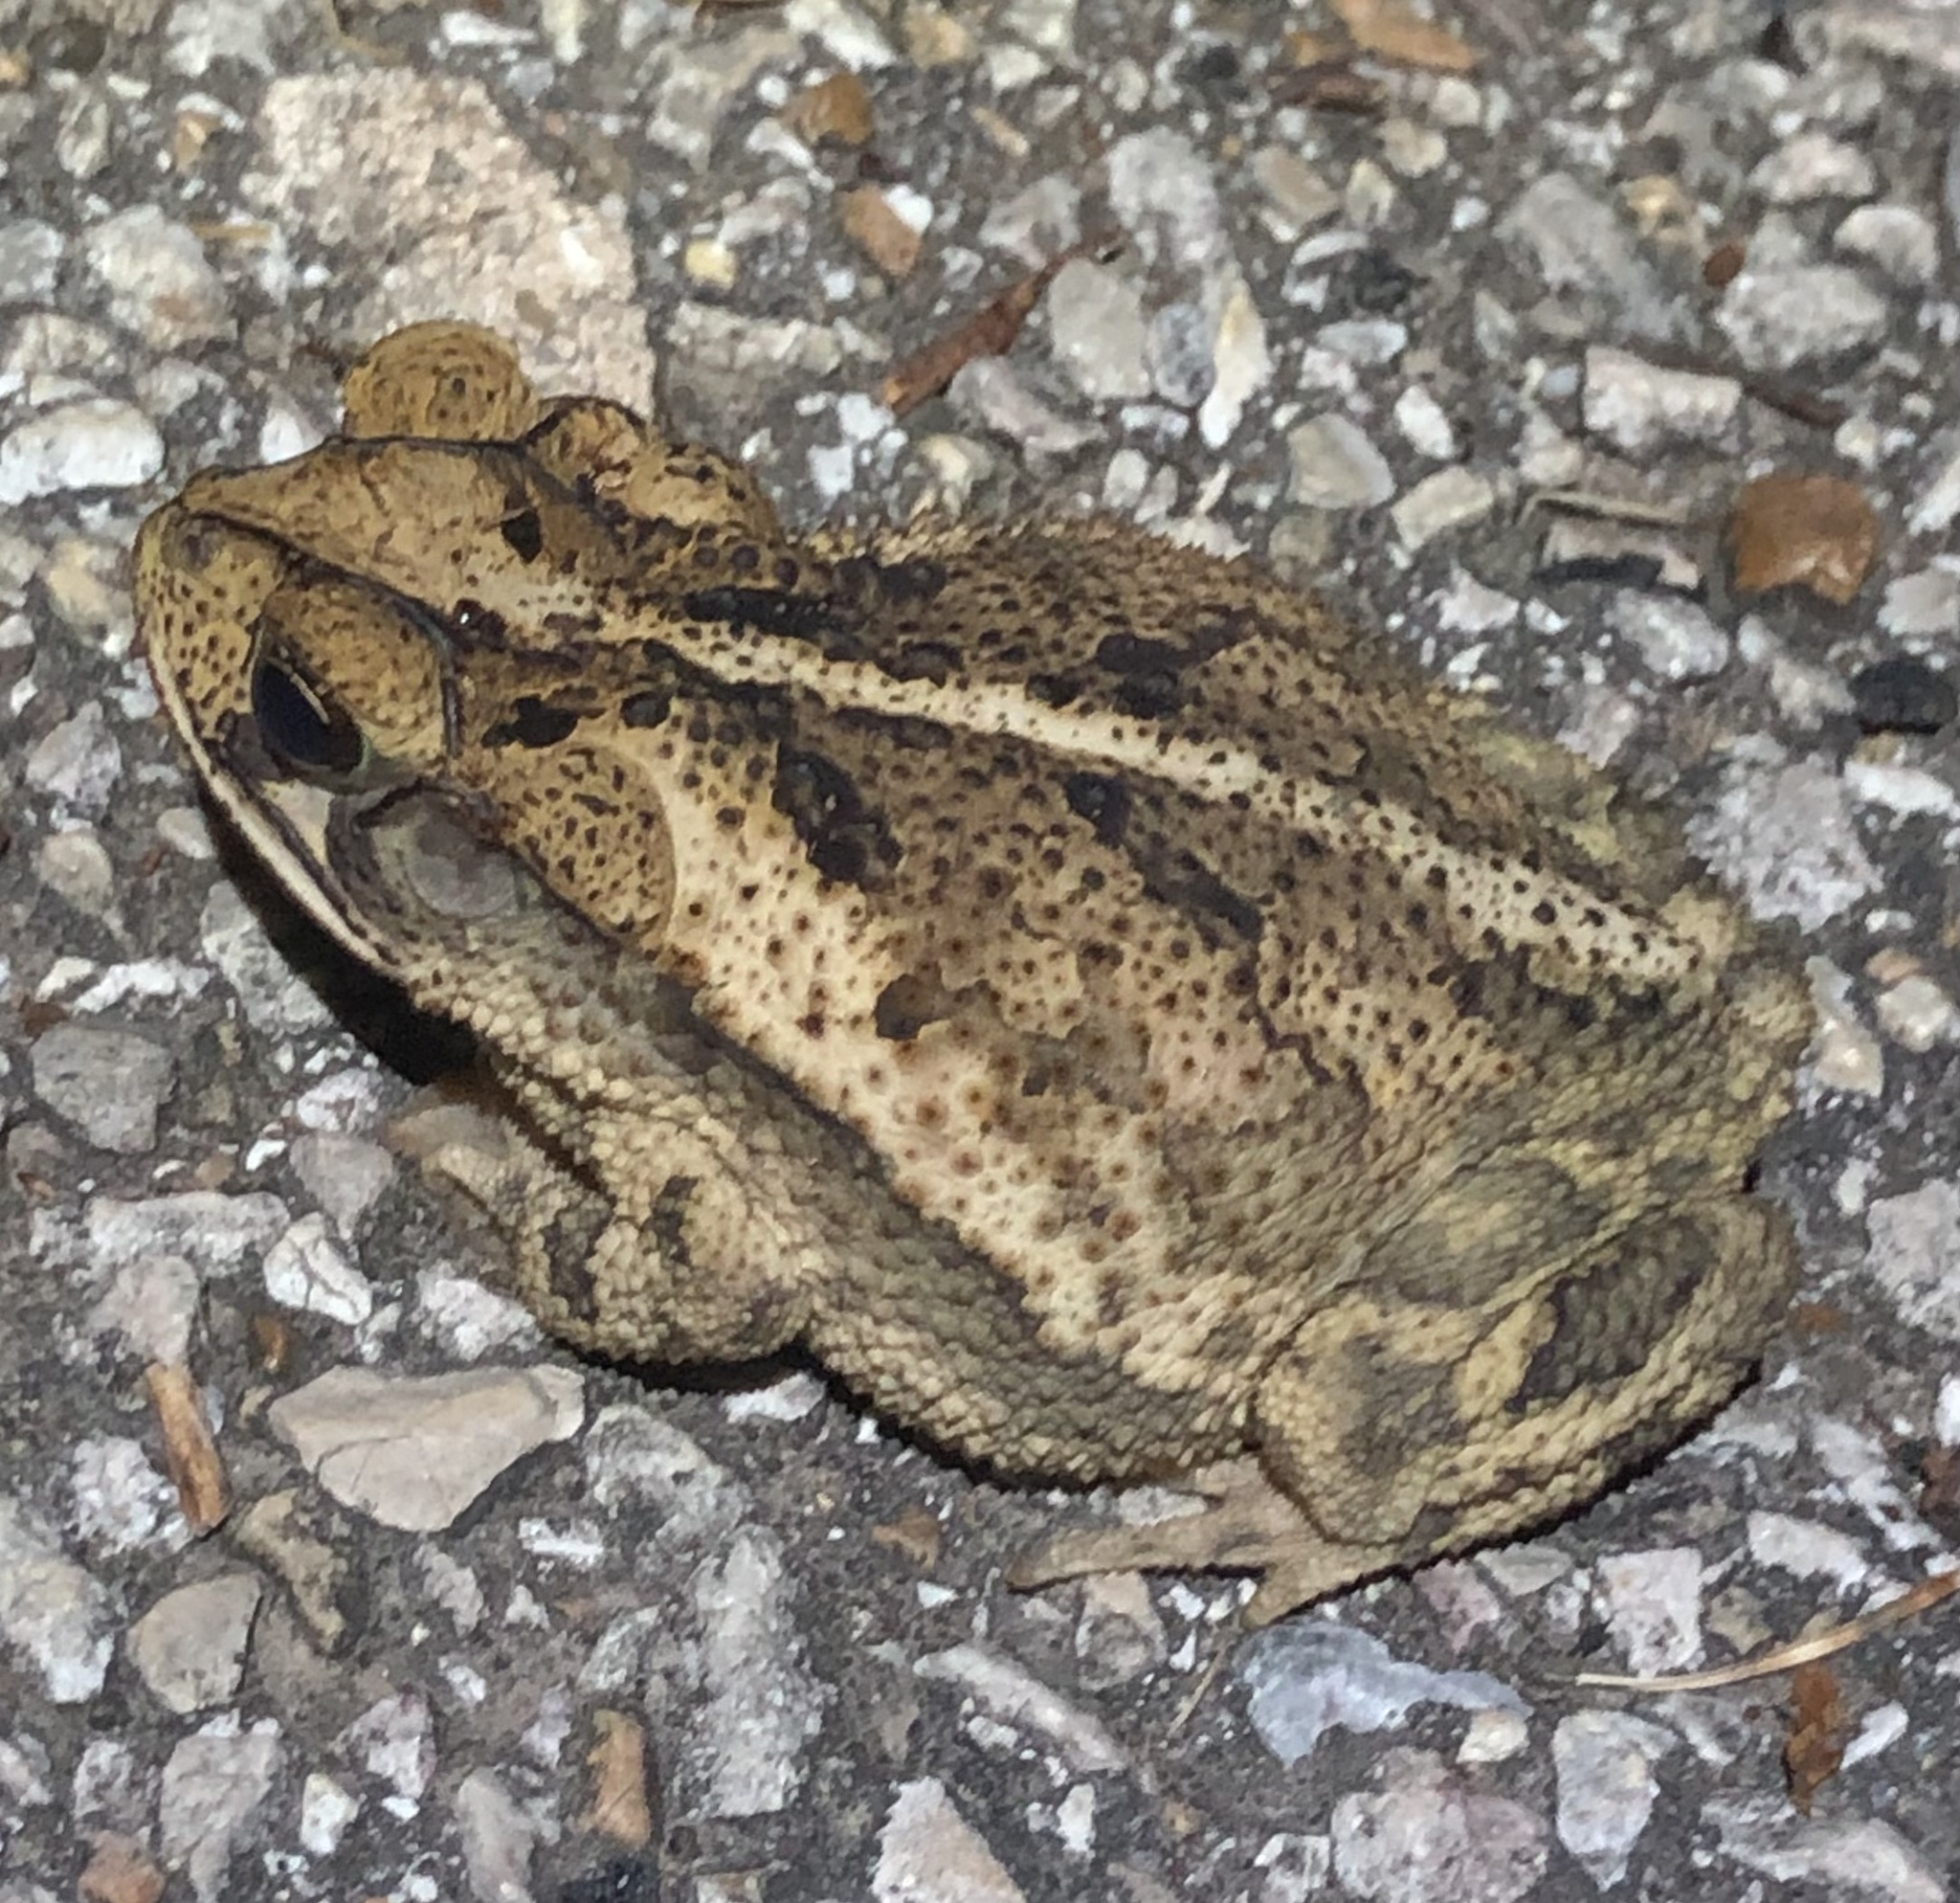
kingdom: Animalia
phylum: Chordata
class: Amphibia
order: Anura
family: Bufonidae
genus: Incilius
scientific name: Incilius nebulifer
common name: Gulf coast toad
